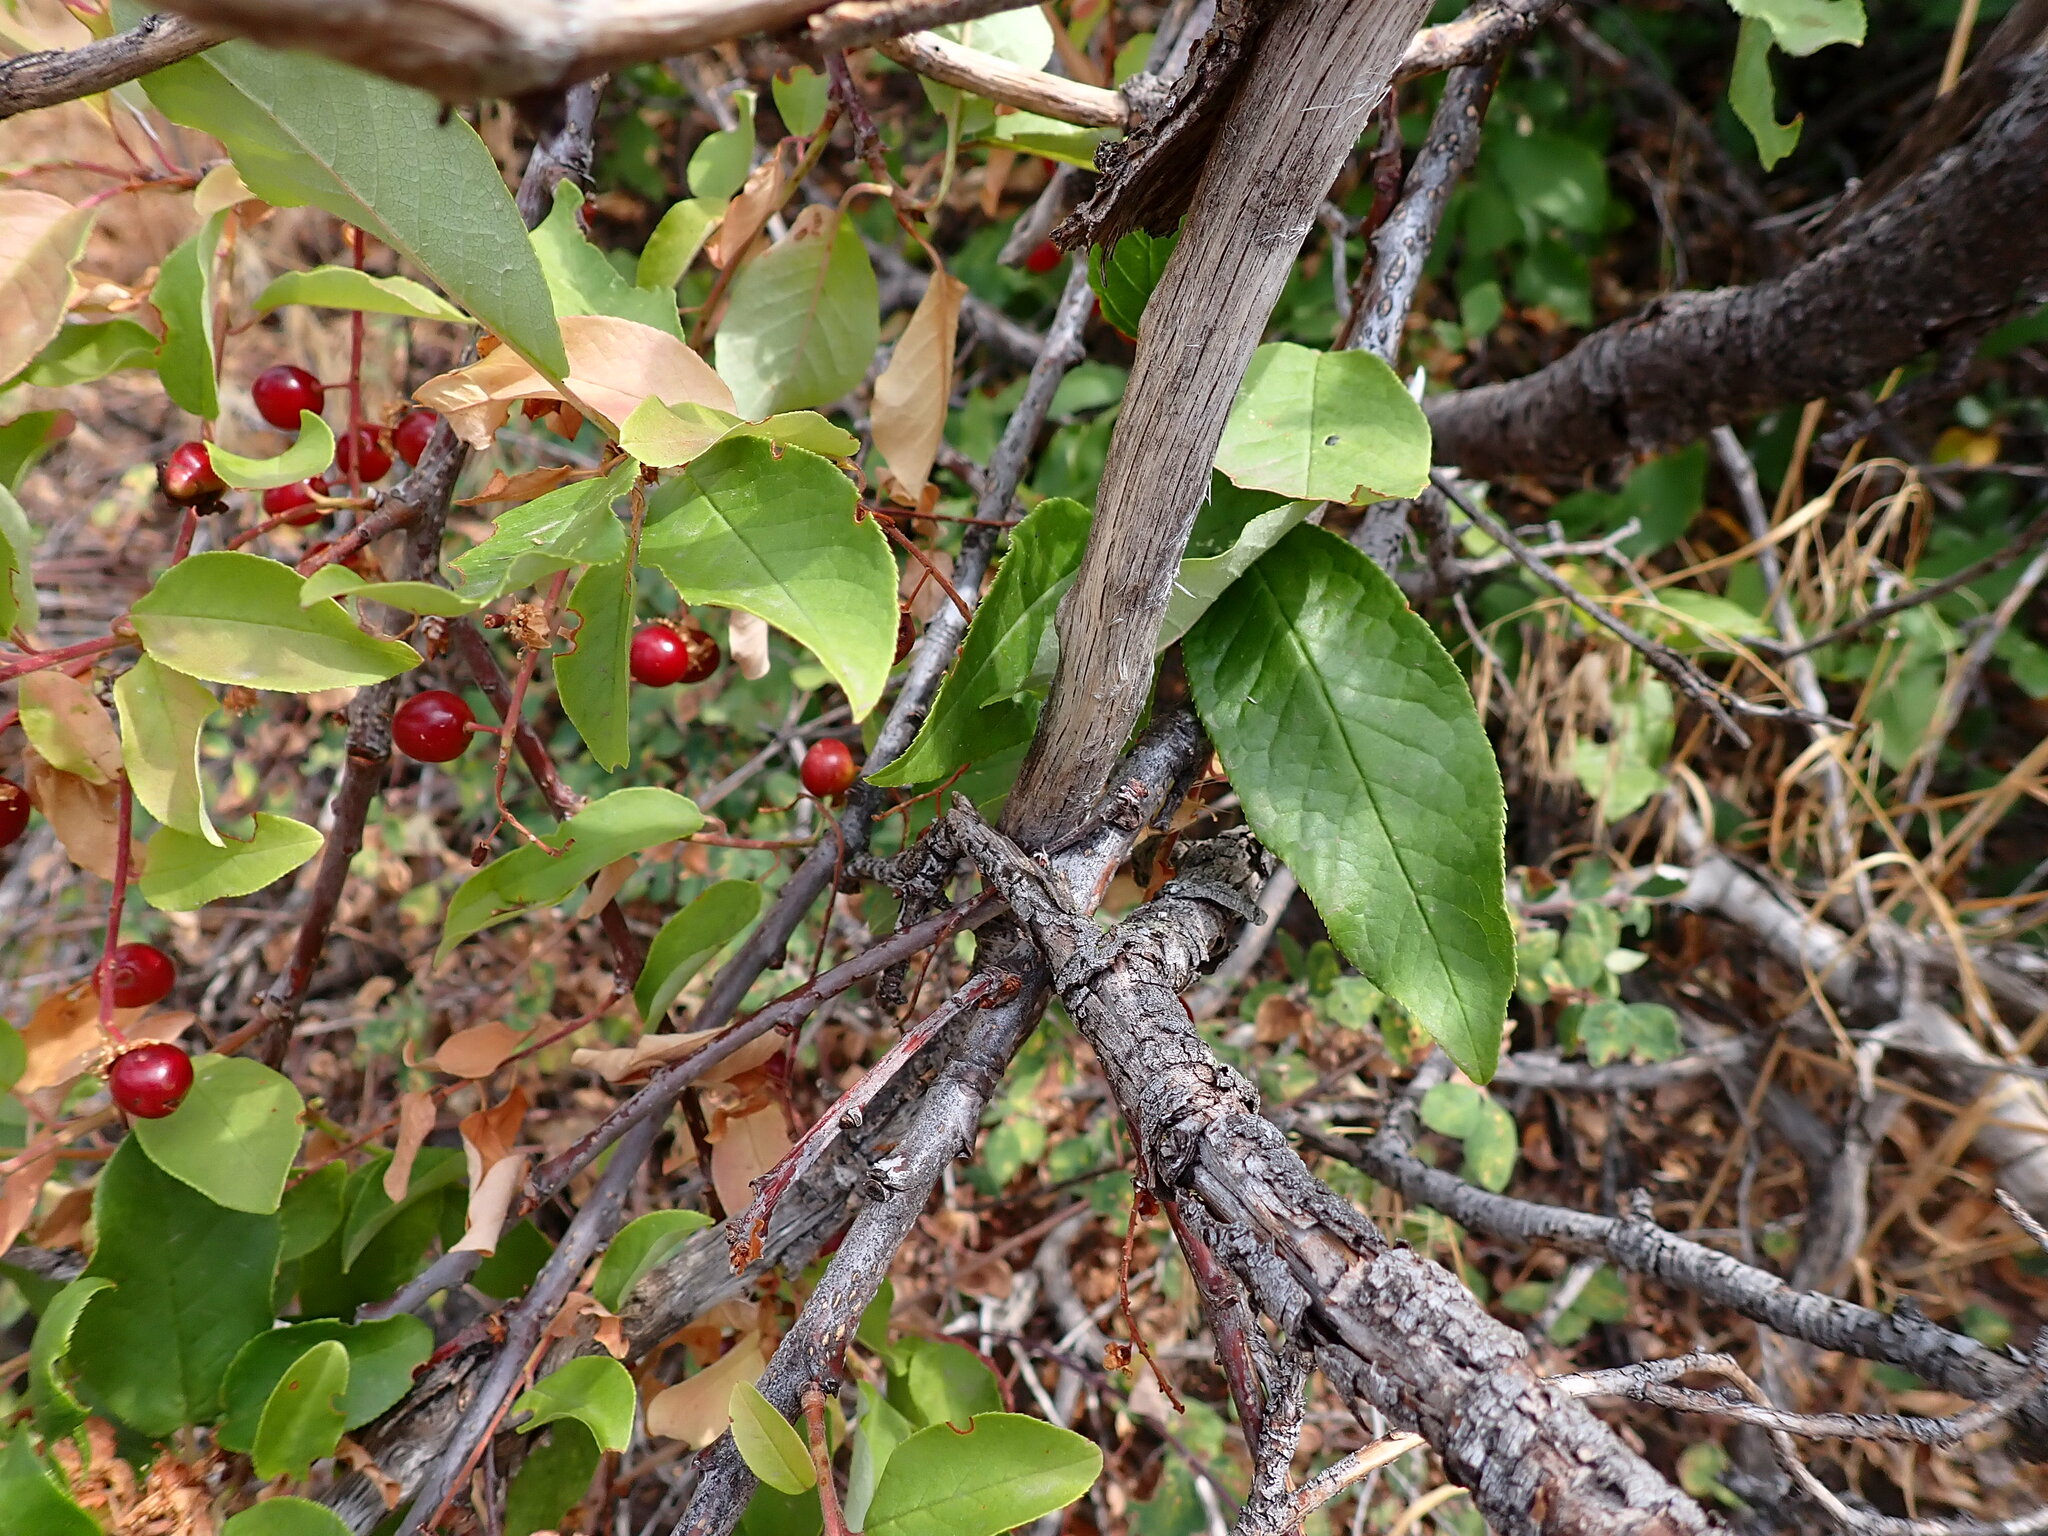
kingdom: Plantae
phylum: Tracheophyta
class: Magnoliopsida
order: Rosales
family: Rosaceae
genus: Prunus
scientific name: Prunus virginiana
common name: Chokecherry
